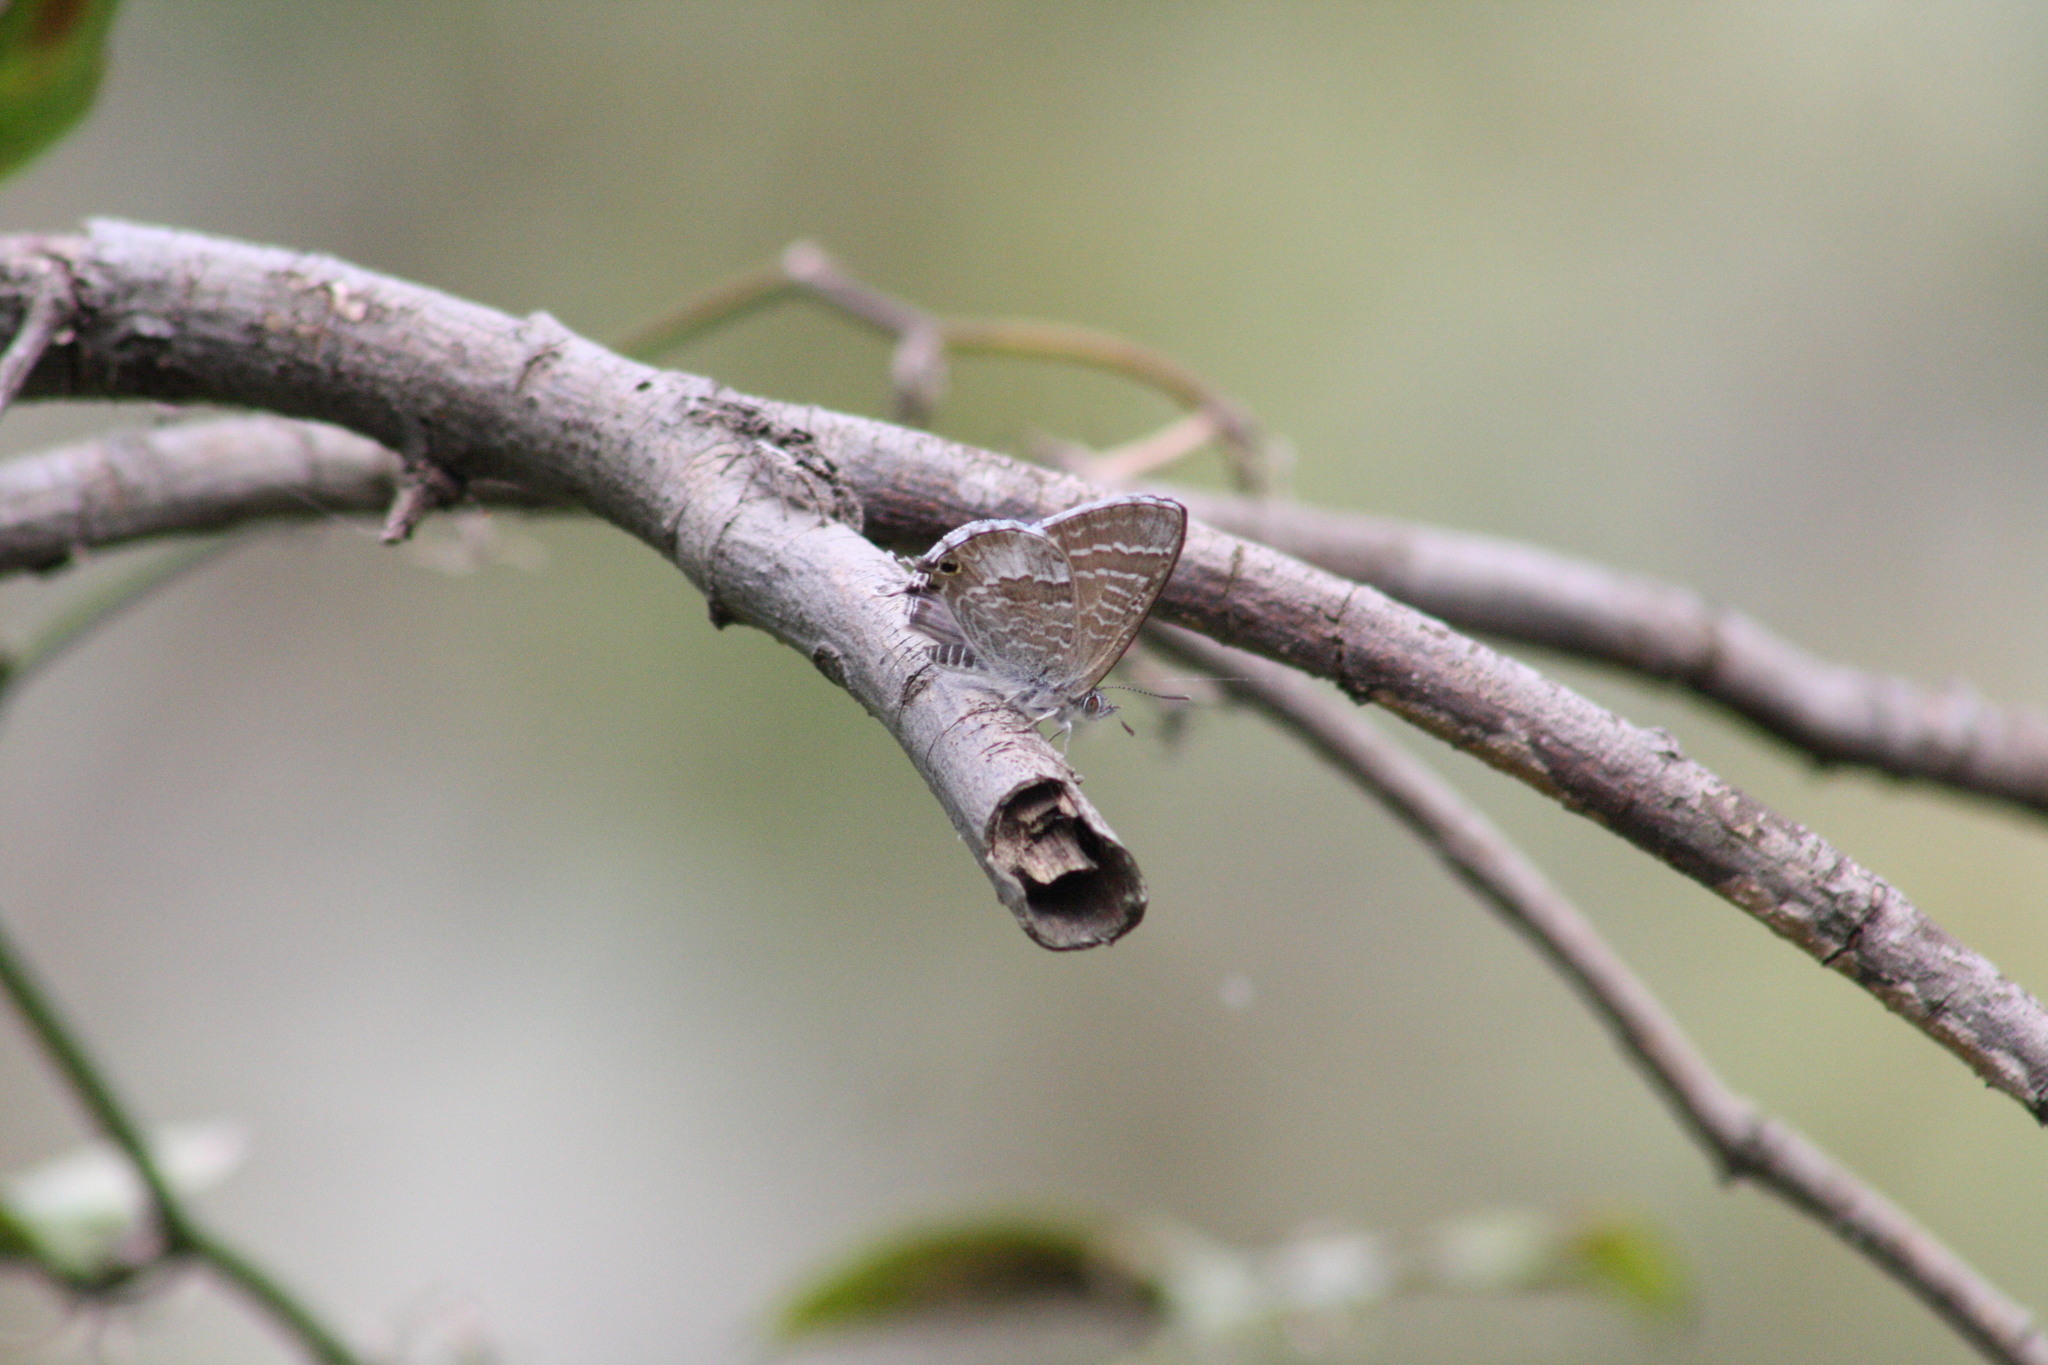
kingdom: Animalia
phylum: Arthropoda
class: Insecta
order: Lepidoptera
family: Lycaenidae
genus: Theclinesthes
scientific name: Theclinesthes miskini
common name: Wattle blue
